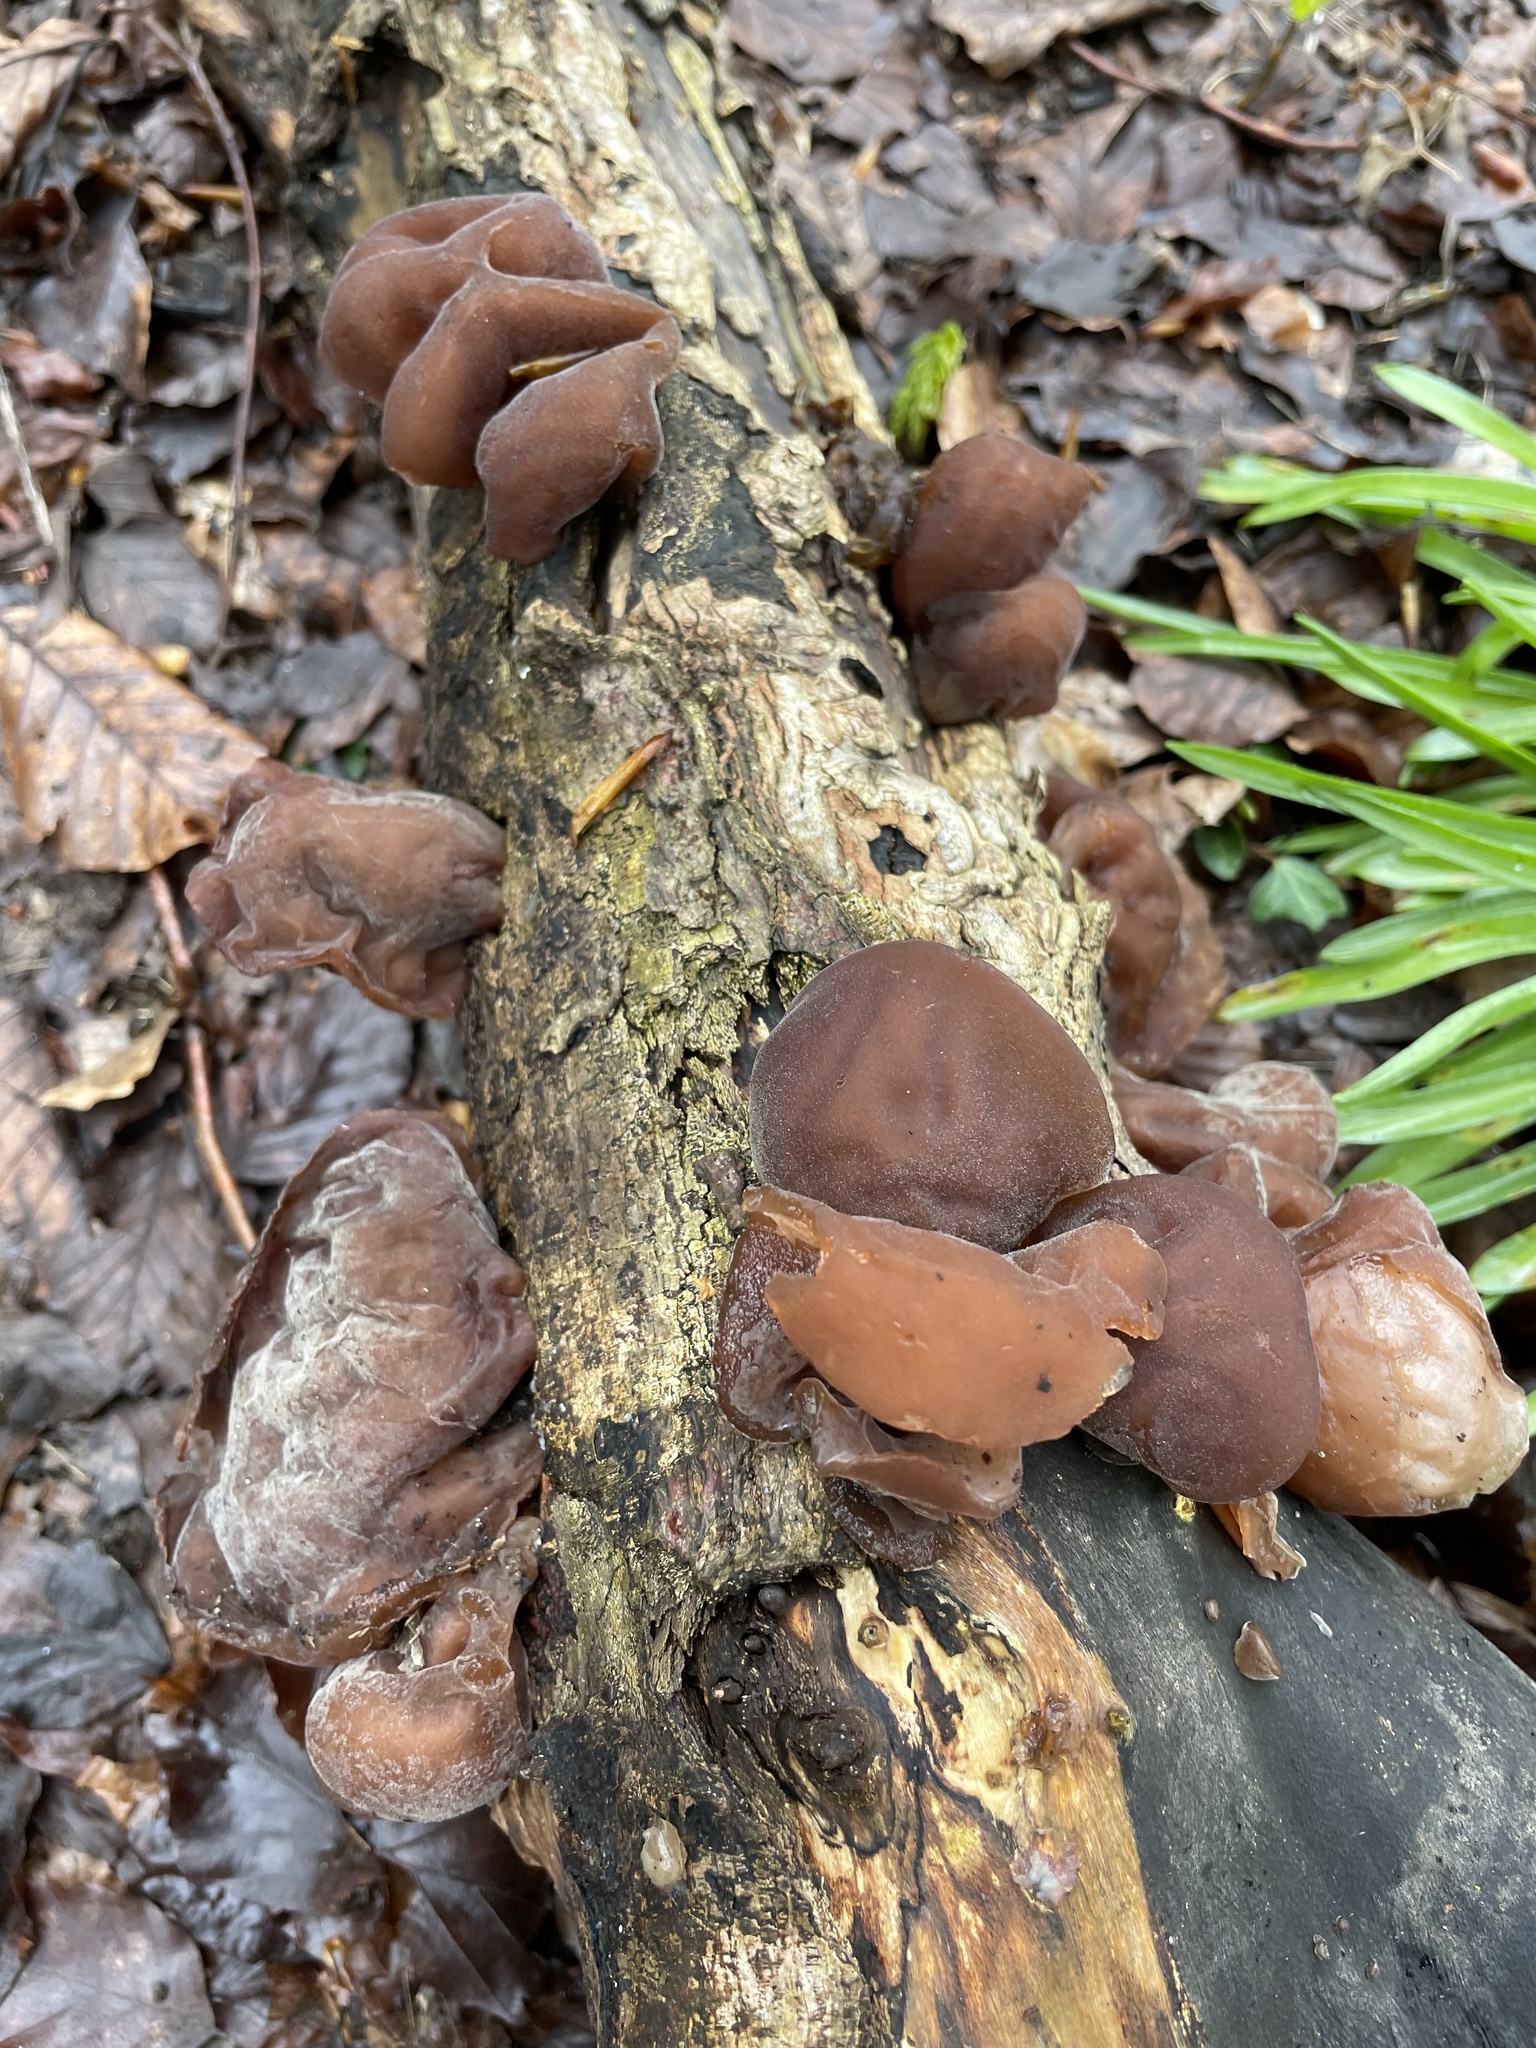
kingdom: Fungi
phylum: Basidiomycota
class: Agaricomycetes
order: Auriculariales
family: Auriculariaceae
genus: Auricularia
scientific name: Auricularia auricula-judae
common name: Jelly ear
